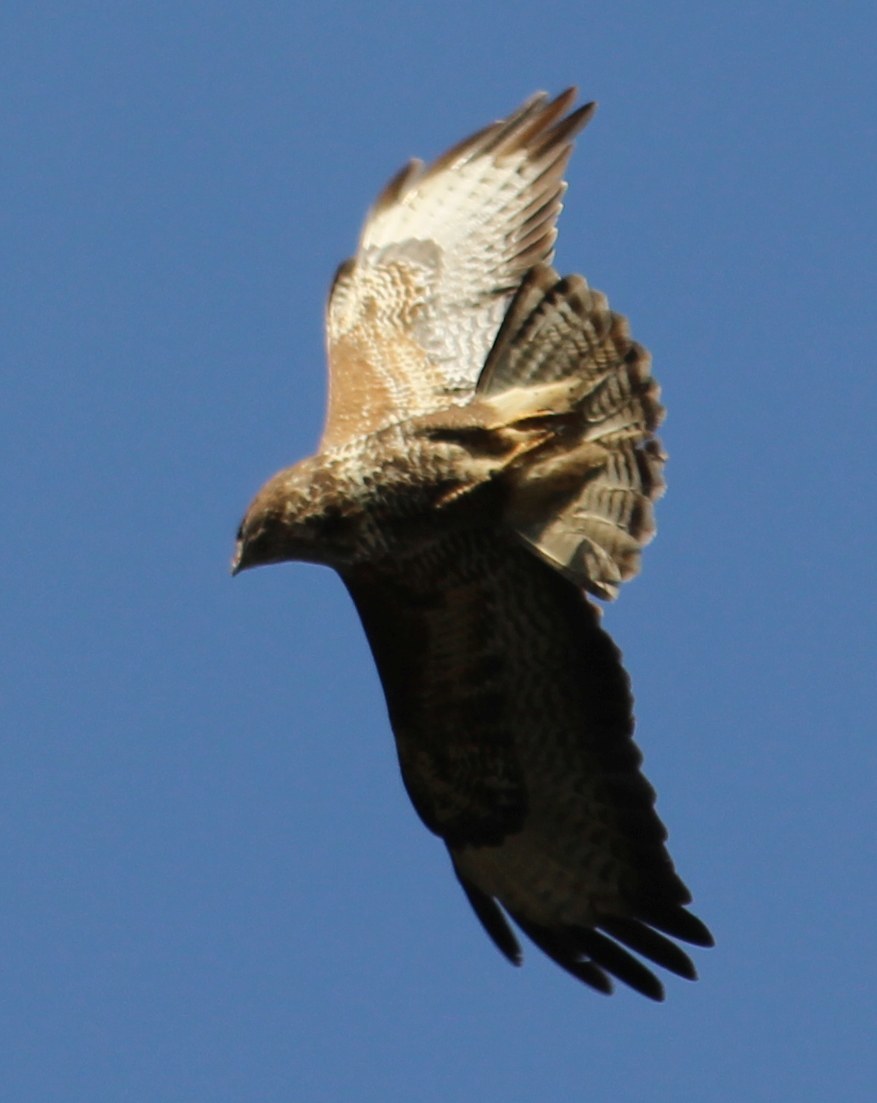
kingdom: Animalia
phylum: Chordata
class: Aves
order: Accipitriformes
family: Accipitridae
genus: Buteo
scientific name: Buteo buteo
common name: Common buzzard
